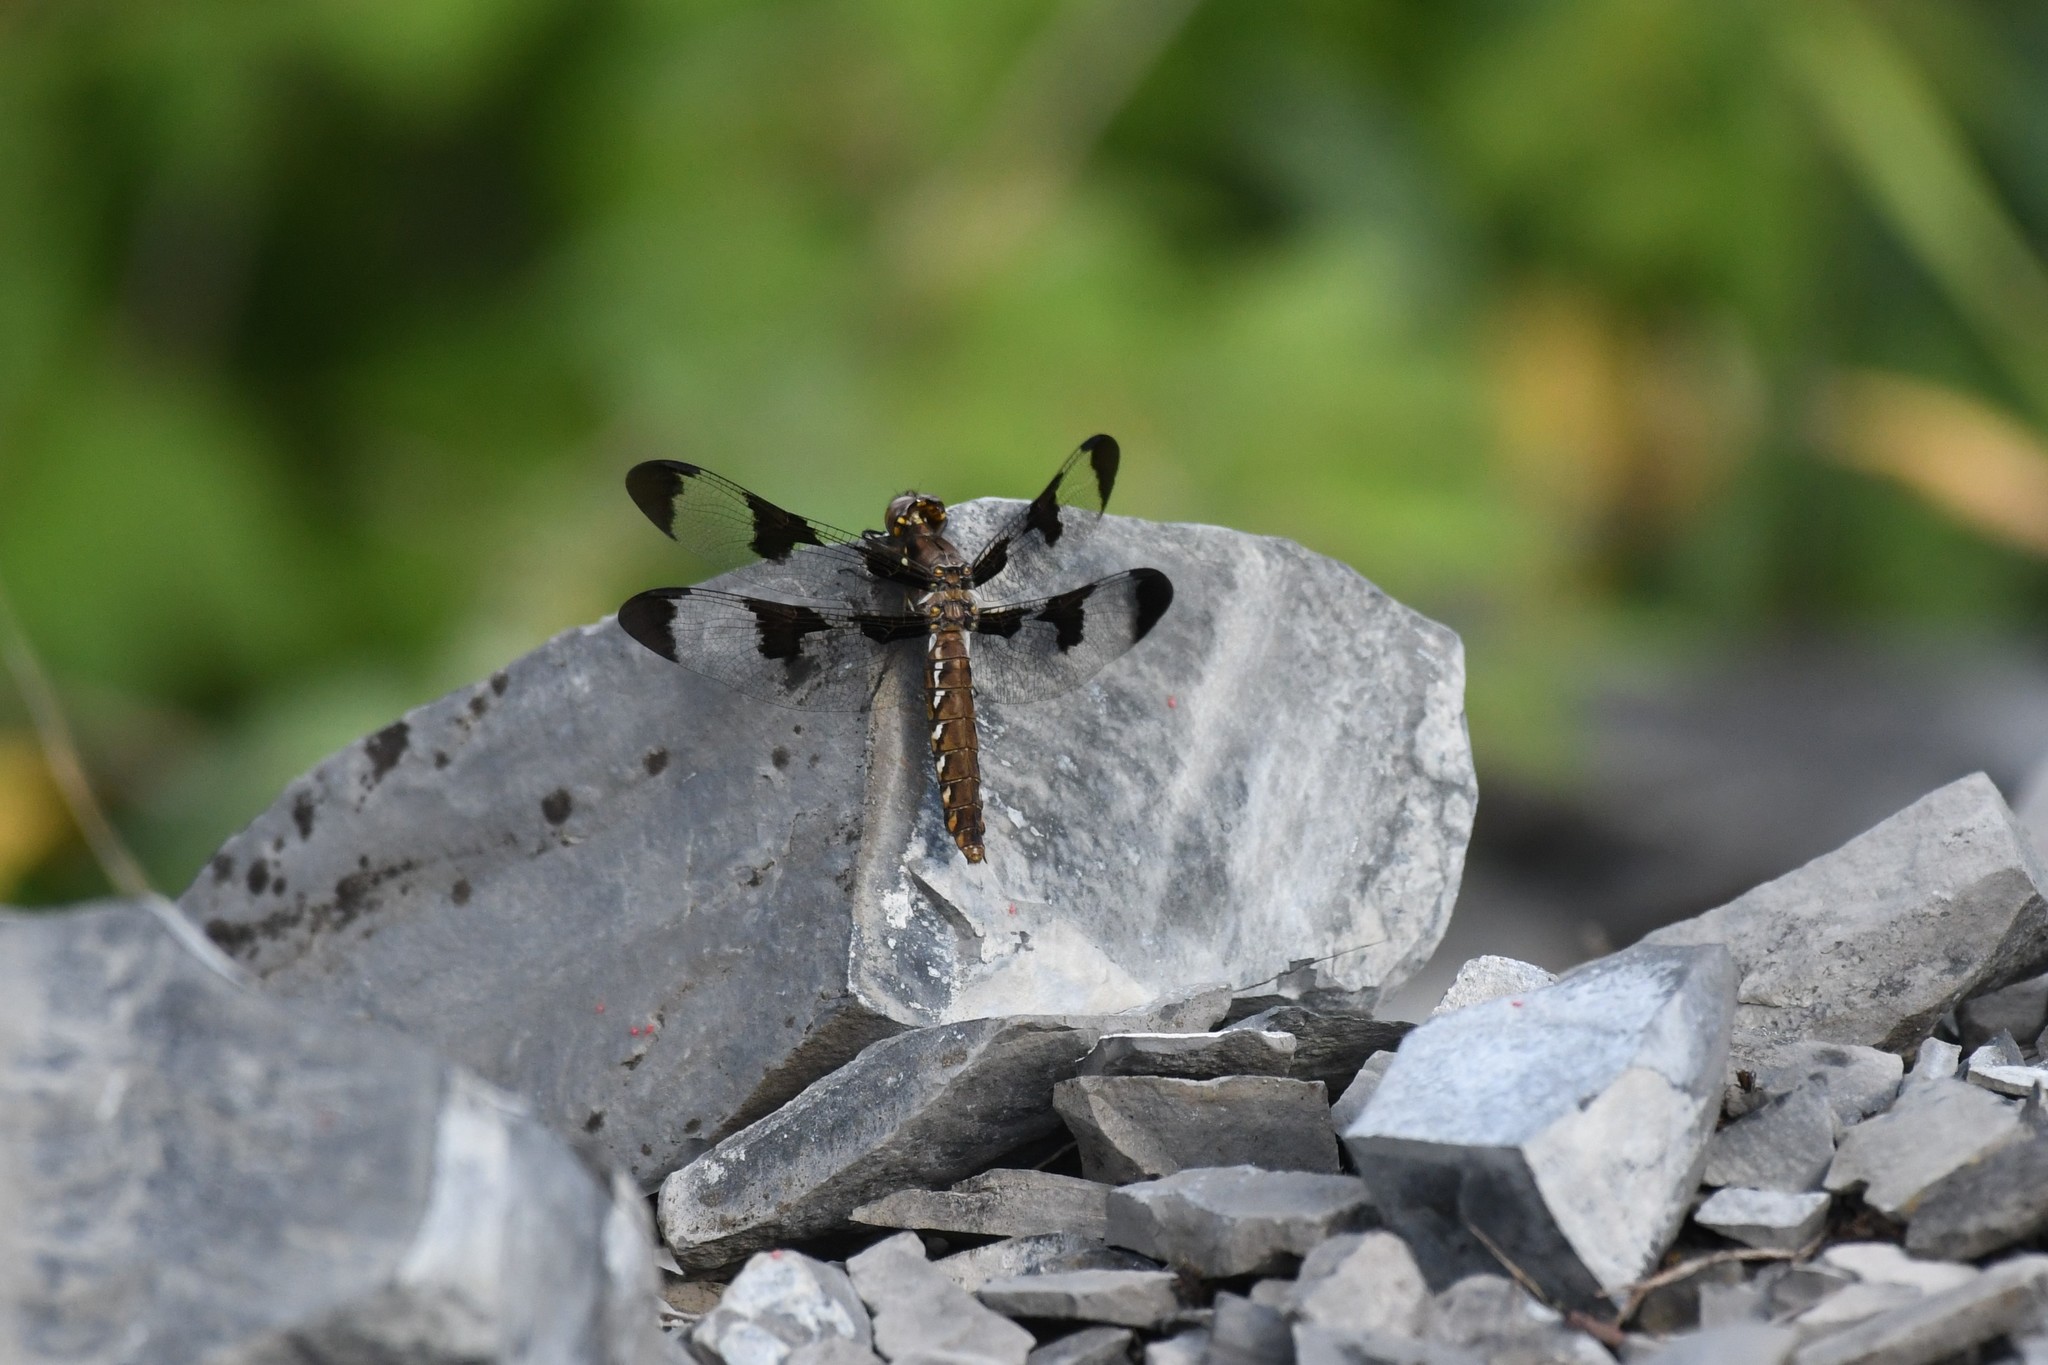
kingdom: Animalia
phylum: Arthropoda
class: Insecta
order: Odonata
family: Libellulidae
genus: Plathemis
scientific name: Plathemis lydia
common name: Common whitetail
